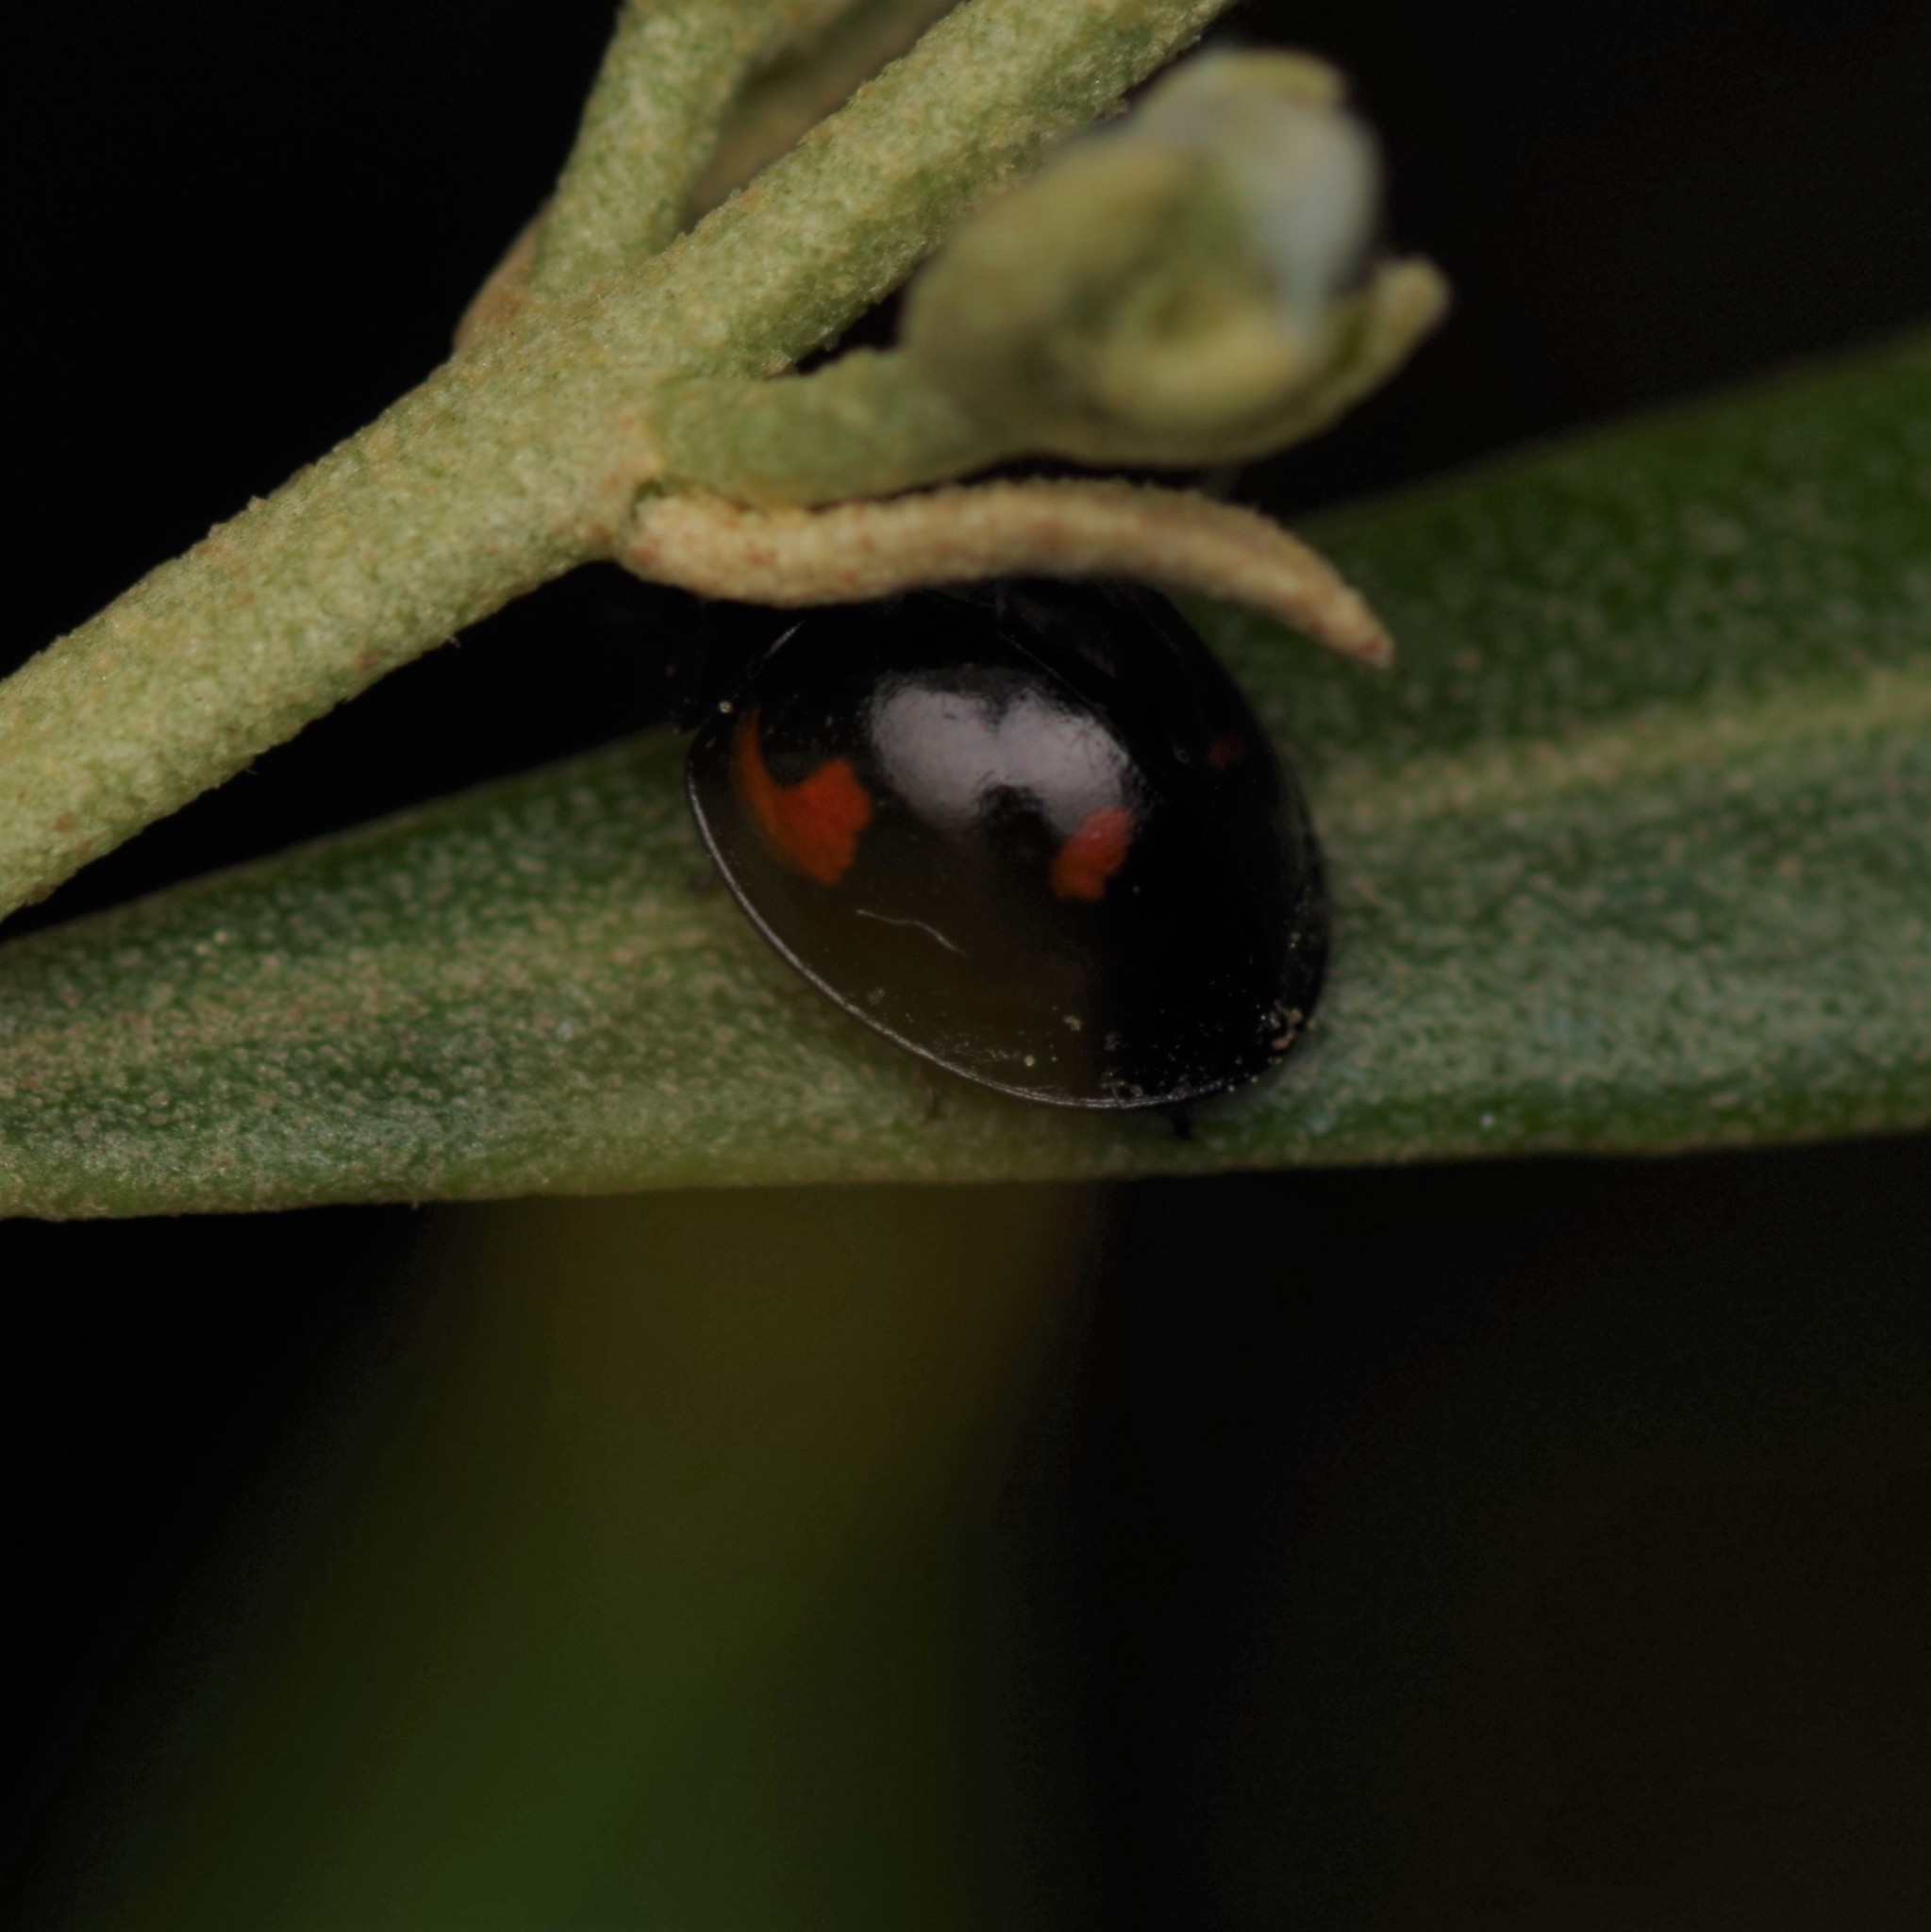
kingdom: Animalia
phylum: Arthropoda
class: Insecta
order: Coleoptera
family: Coccinellidae
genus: Brumus
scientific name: Brumus quadripustulatus
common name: Ladybird beetle
